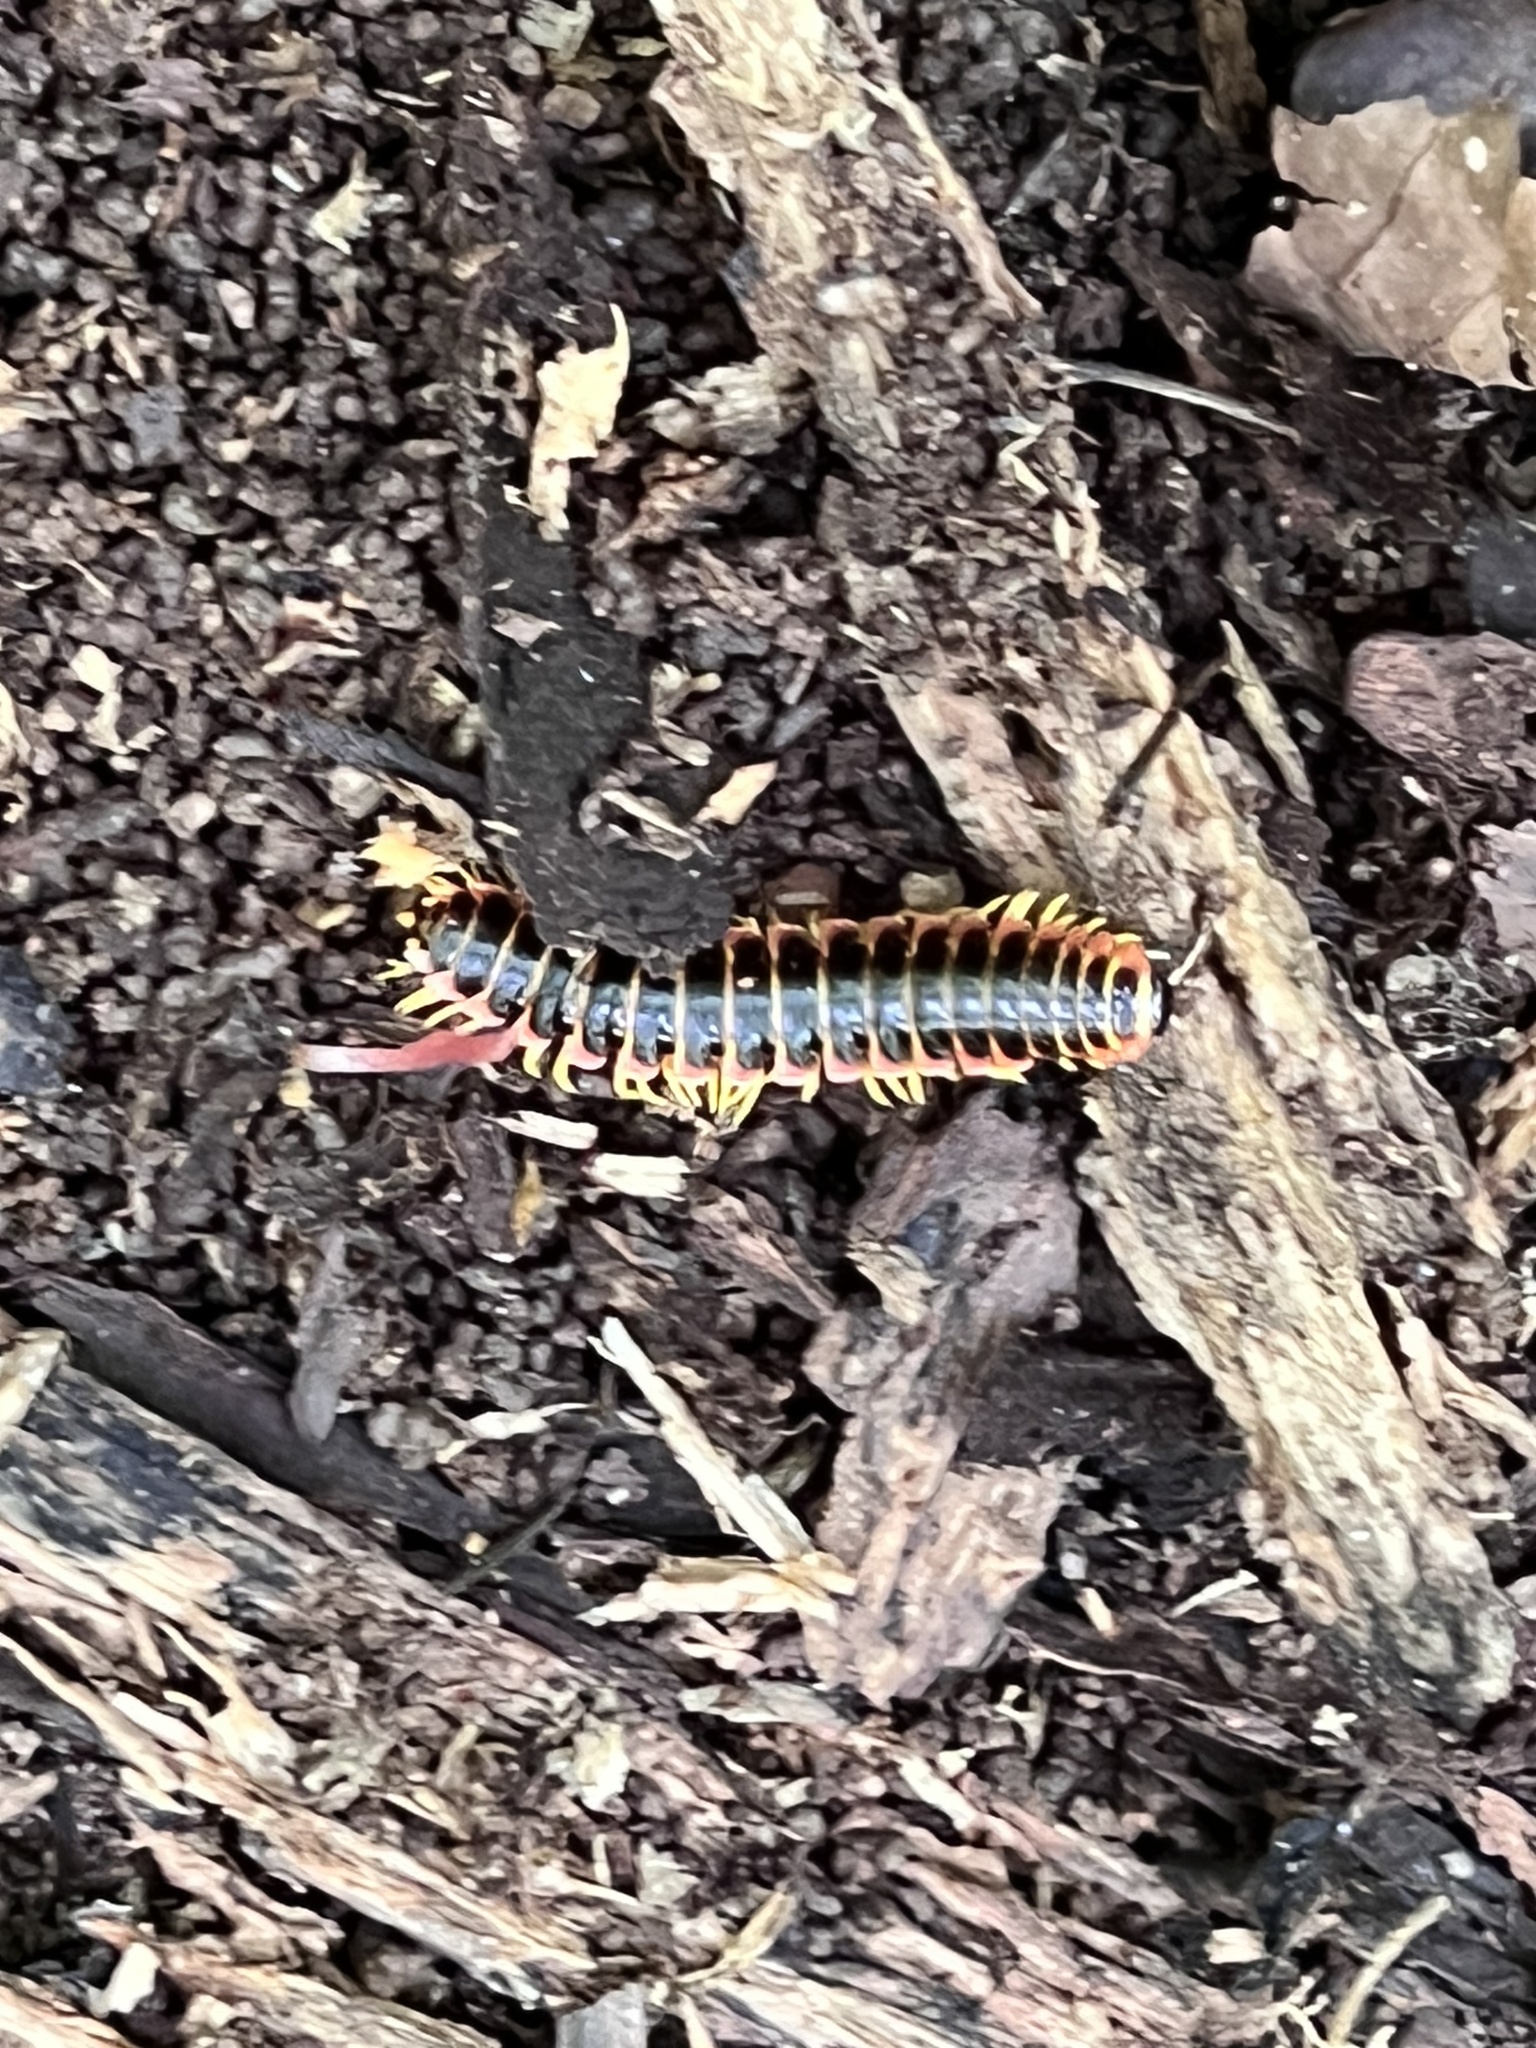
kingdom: Animalia
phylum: Arthropoda
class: Diplopoda
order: Polydesmida
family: Xystodesmidae
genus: Apheloria
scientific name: Apheloria virginiensis
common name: Black-and-gold flat millipede
